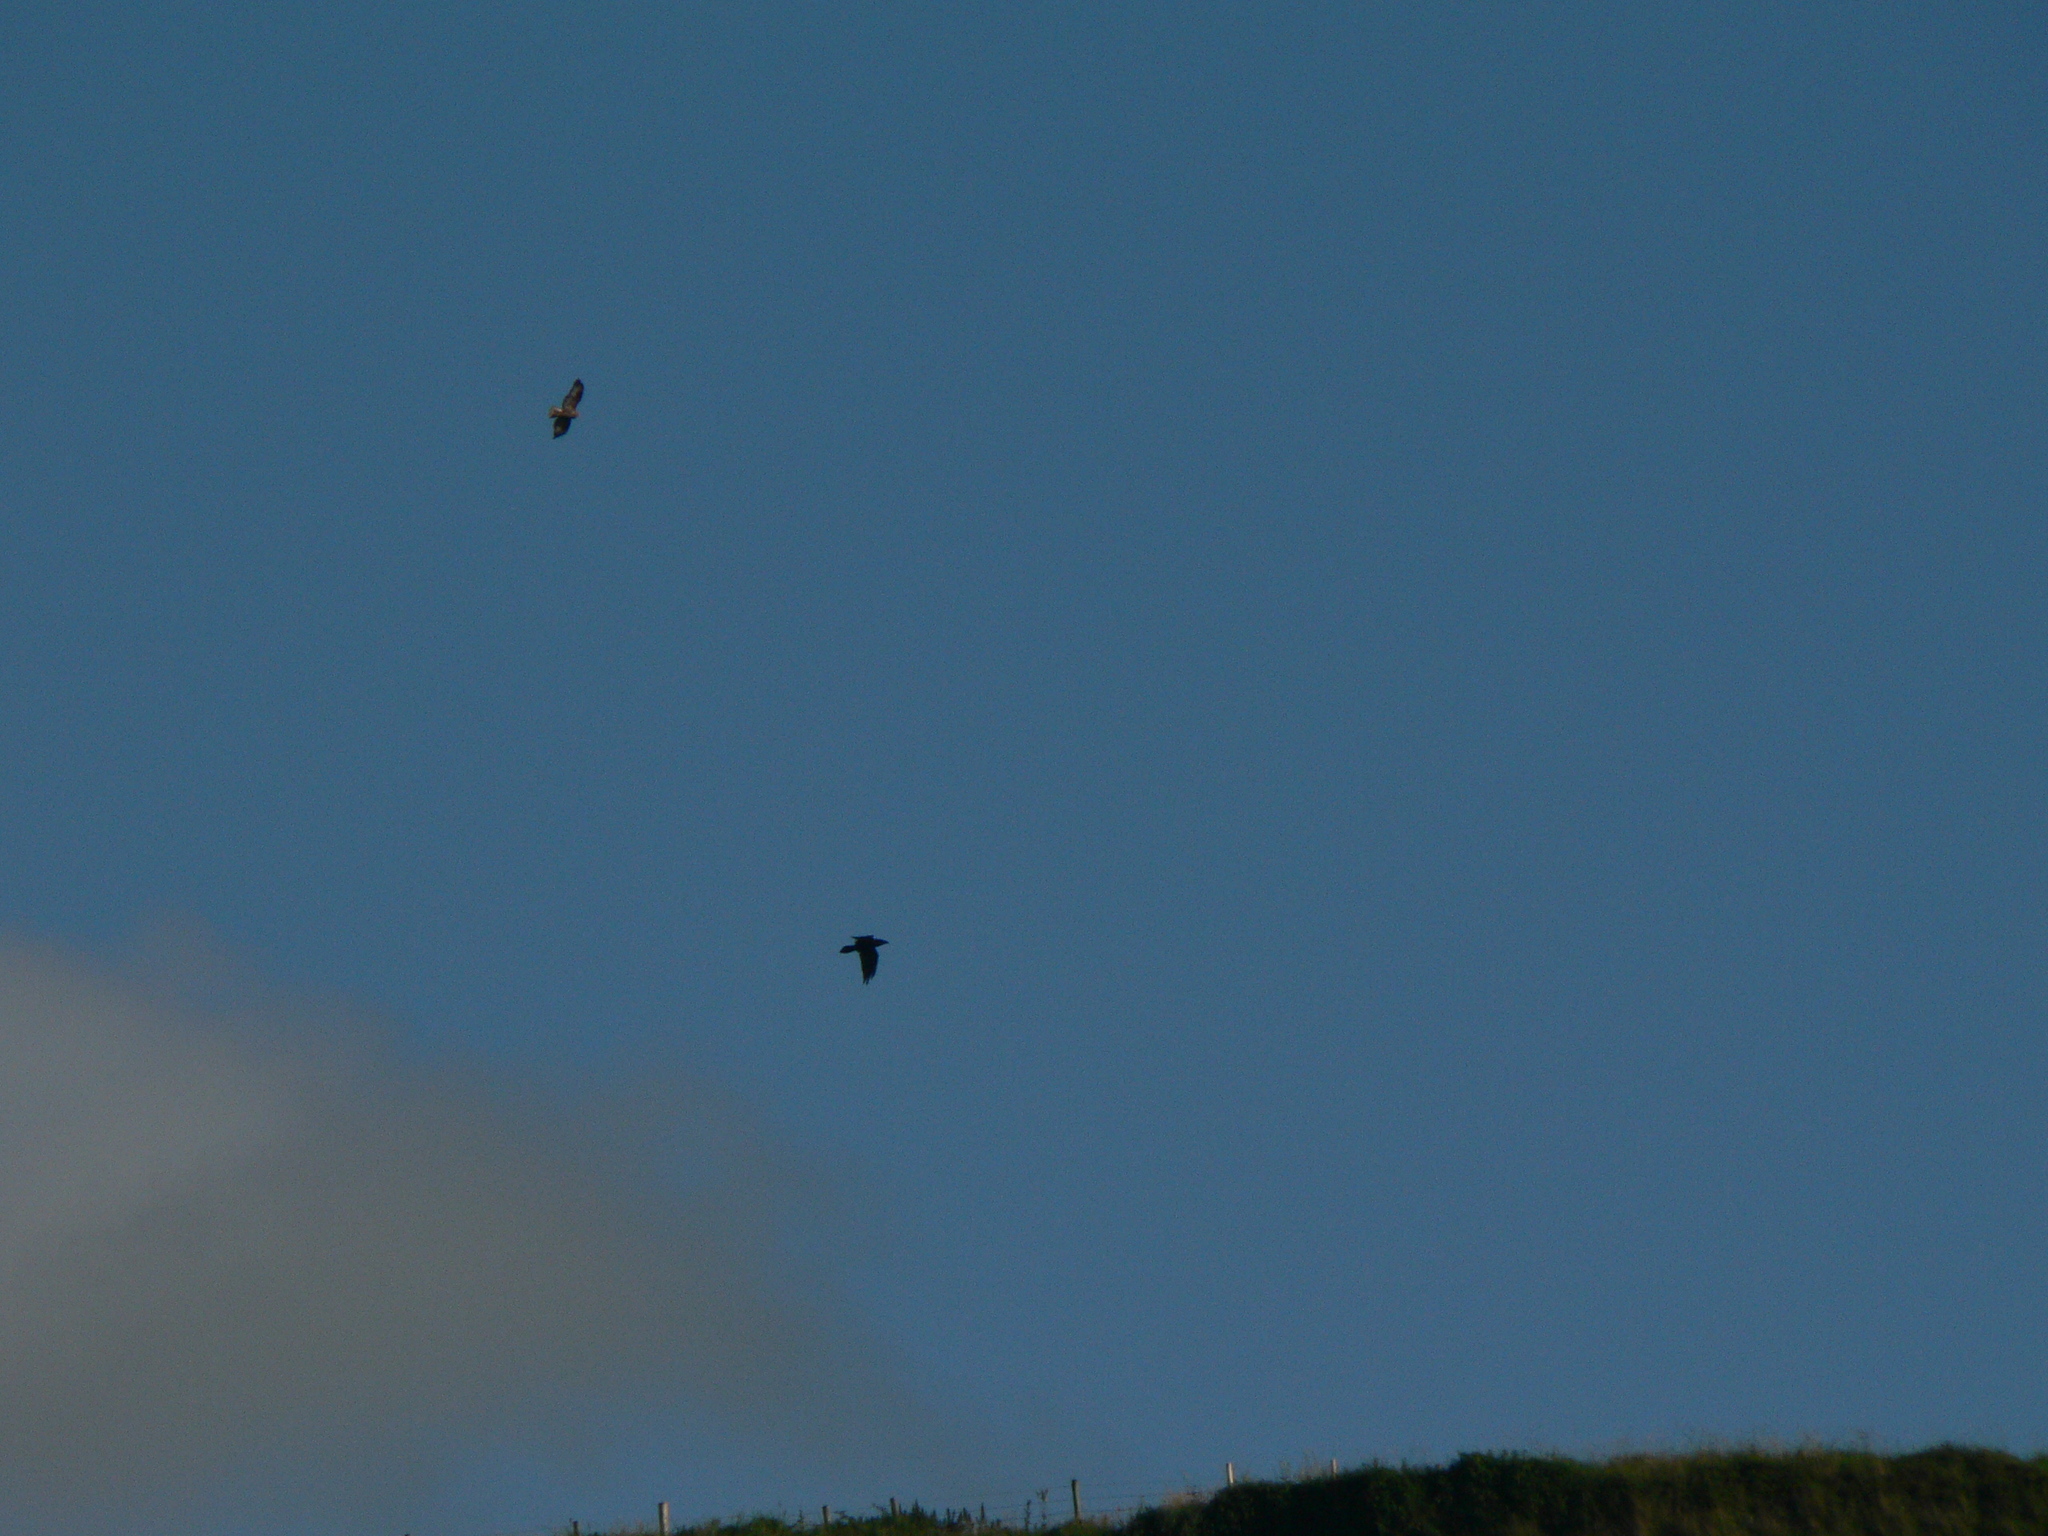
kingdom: Animalia
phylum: Chordata
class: Aves
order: Passeriformes
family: Corvidae
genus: Corvus
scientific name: Corvus corax
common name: Common raven
